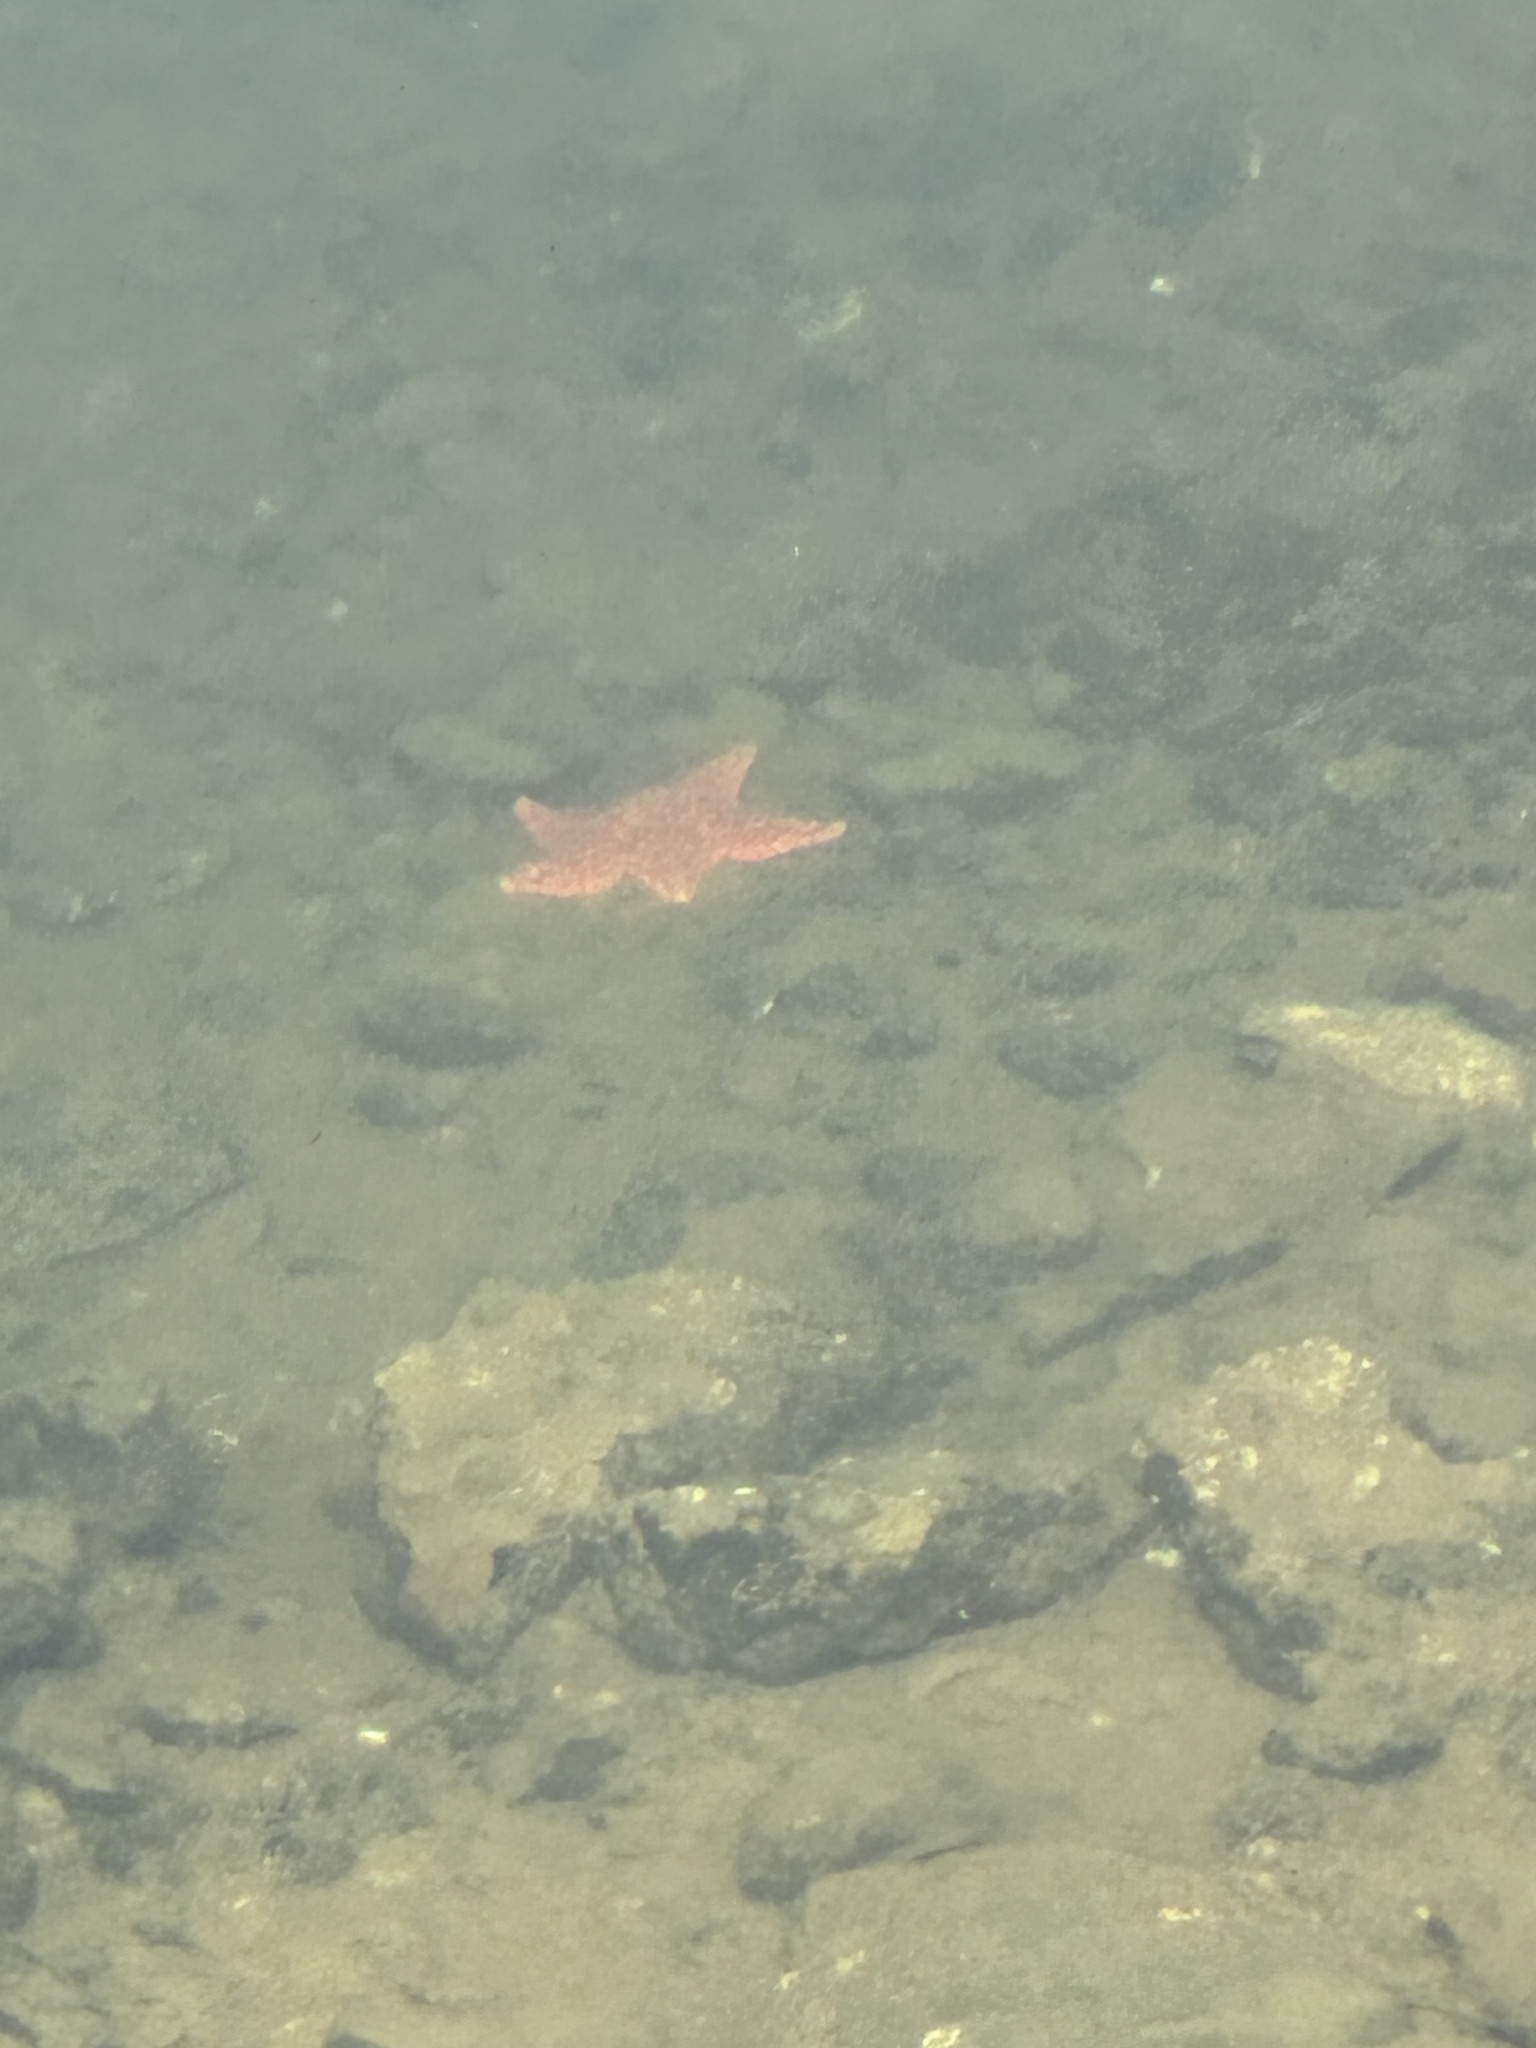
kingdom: Animalia
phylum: Echinodermata
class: Asteroidea
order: Valvatida
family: Asterinidae
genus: Patiria
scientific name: Patiria miniata
